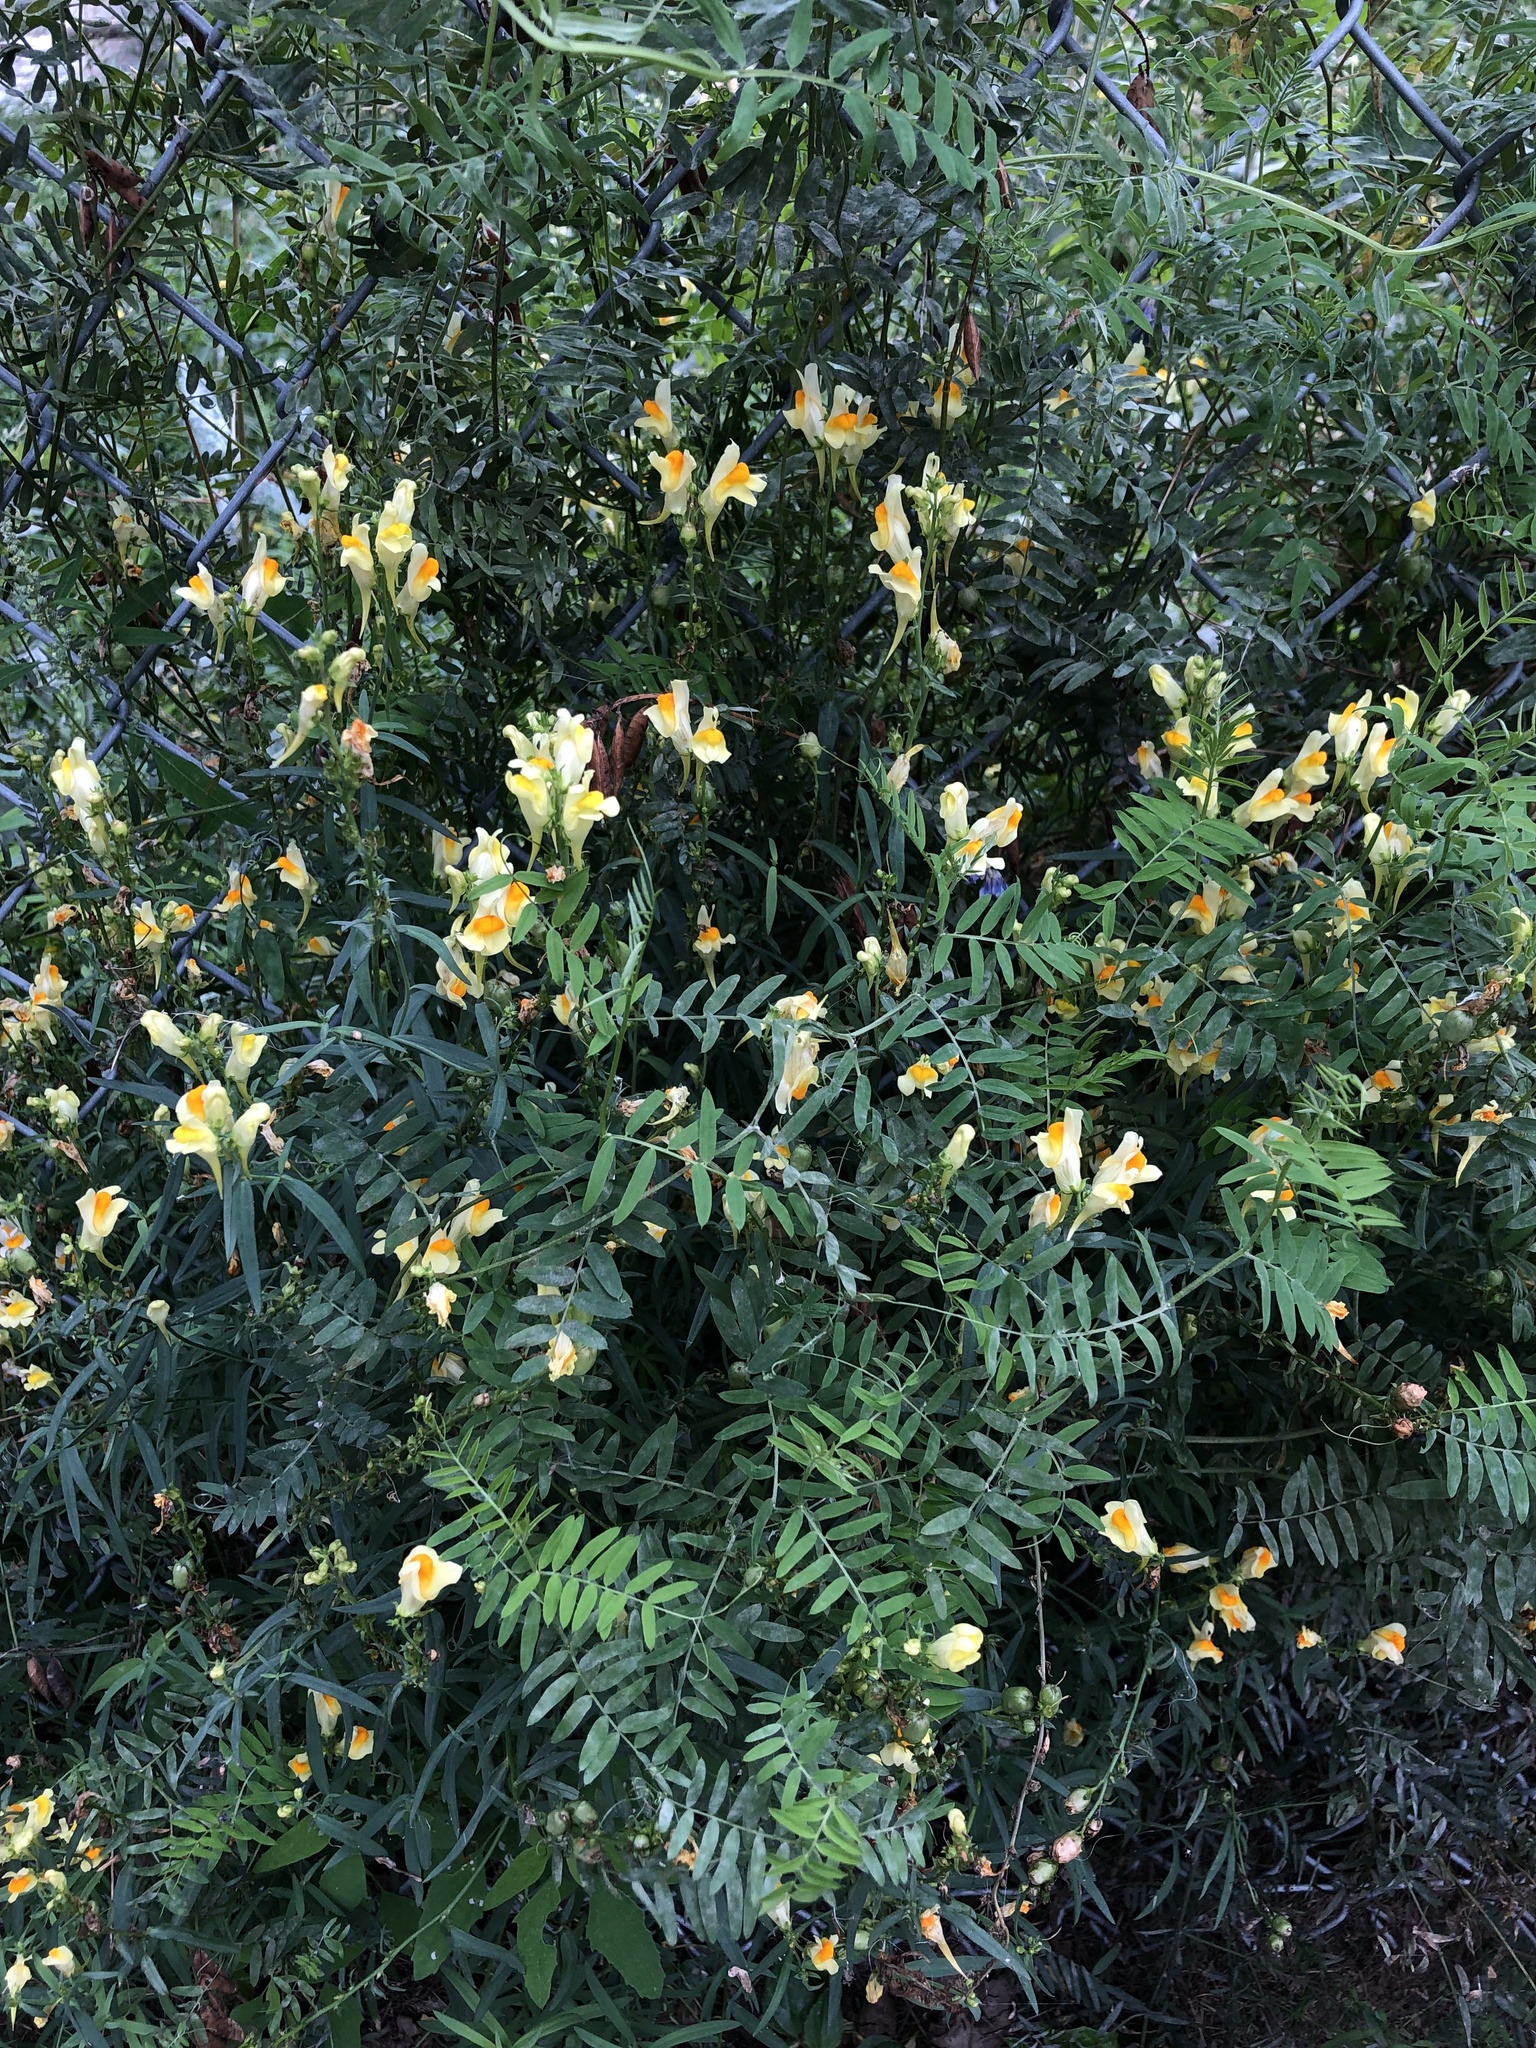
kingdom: Plantae
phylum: Tracheophyta
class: Magnoliopsida
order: Lamiales
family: Plantaginaceae
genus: Linaria
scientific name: Linaria vulgaris
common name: Butter and eggs
